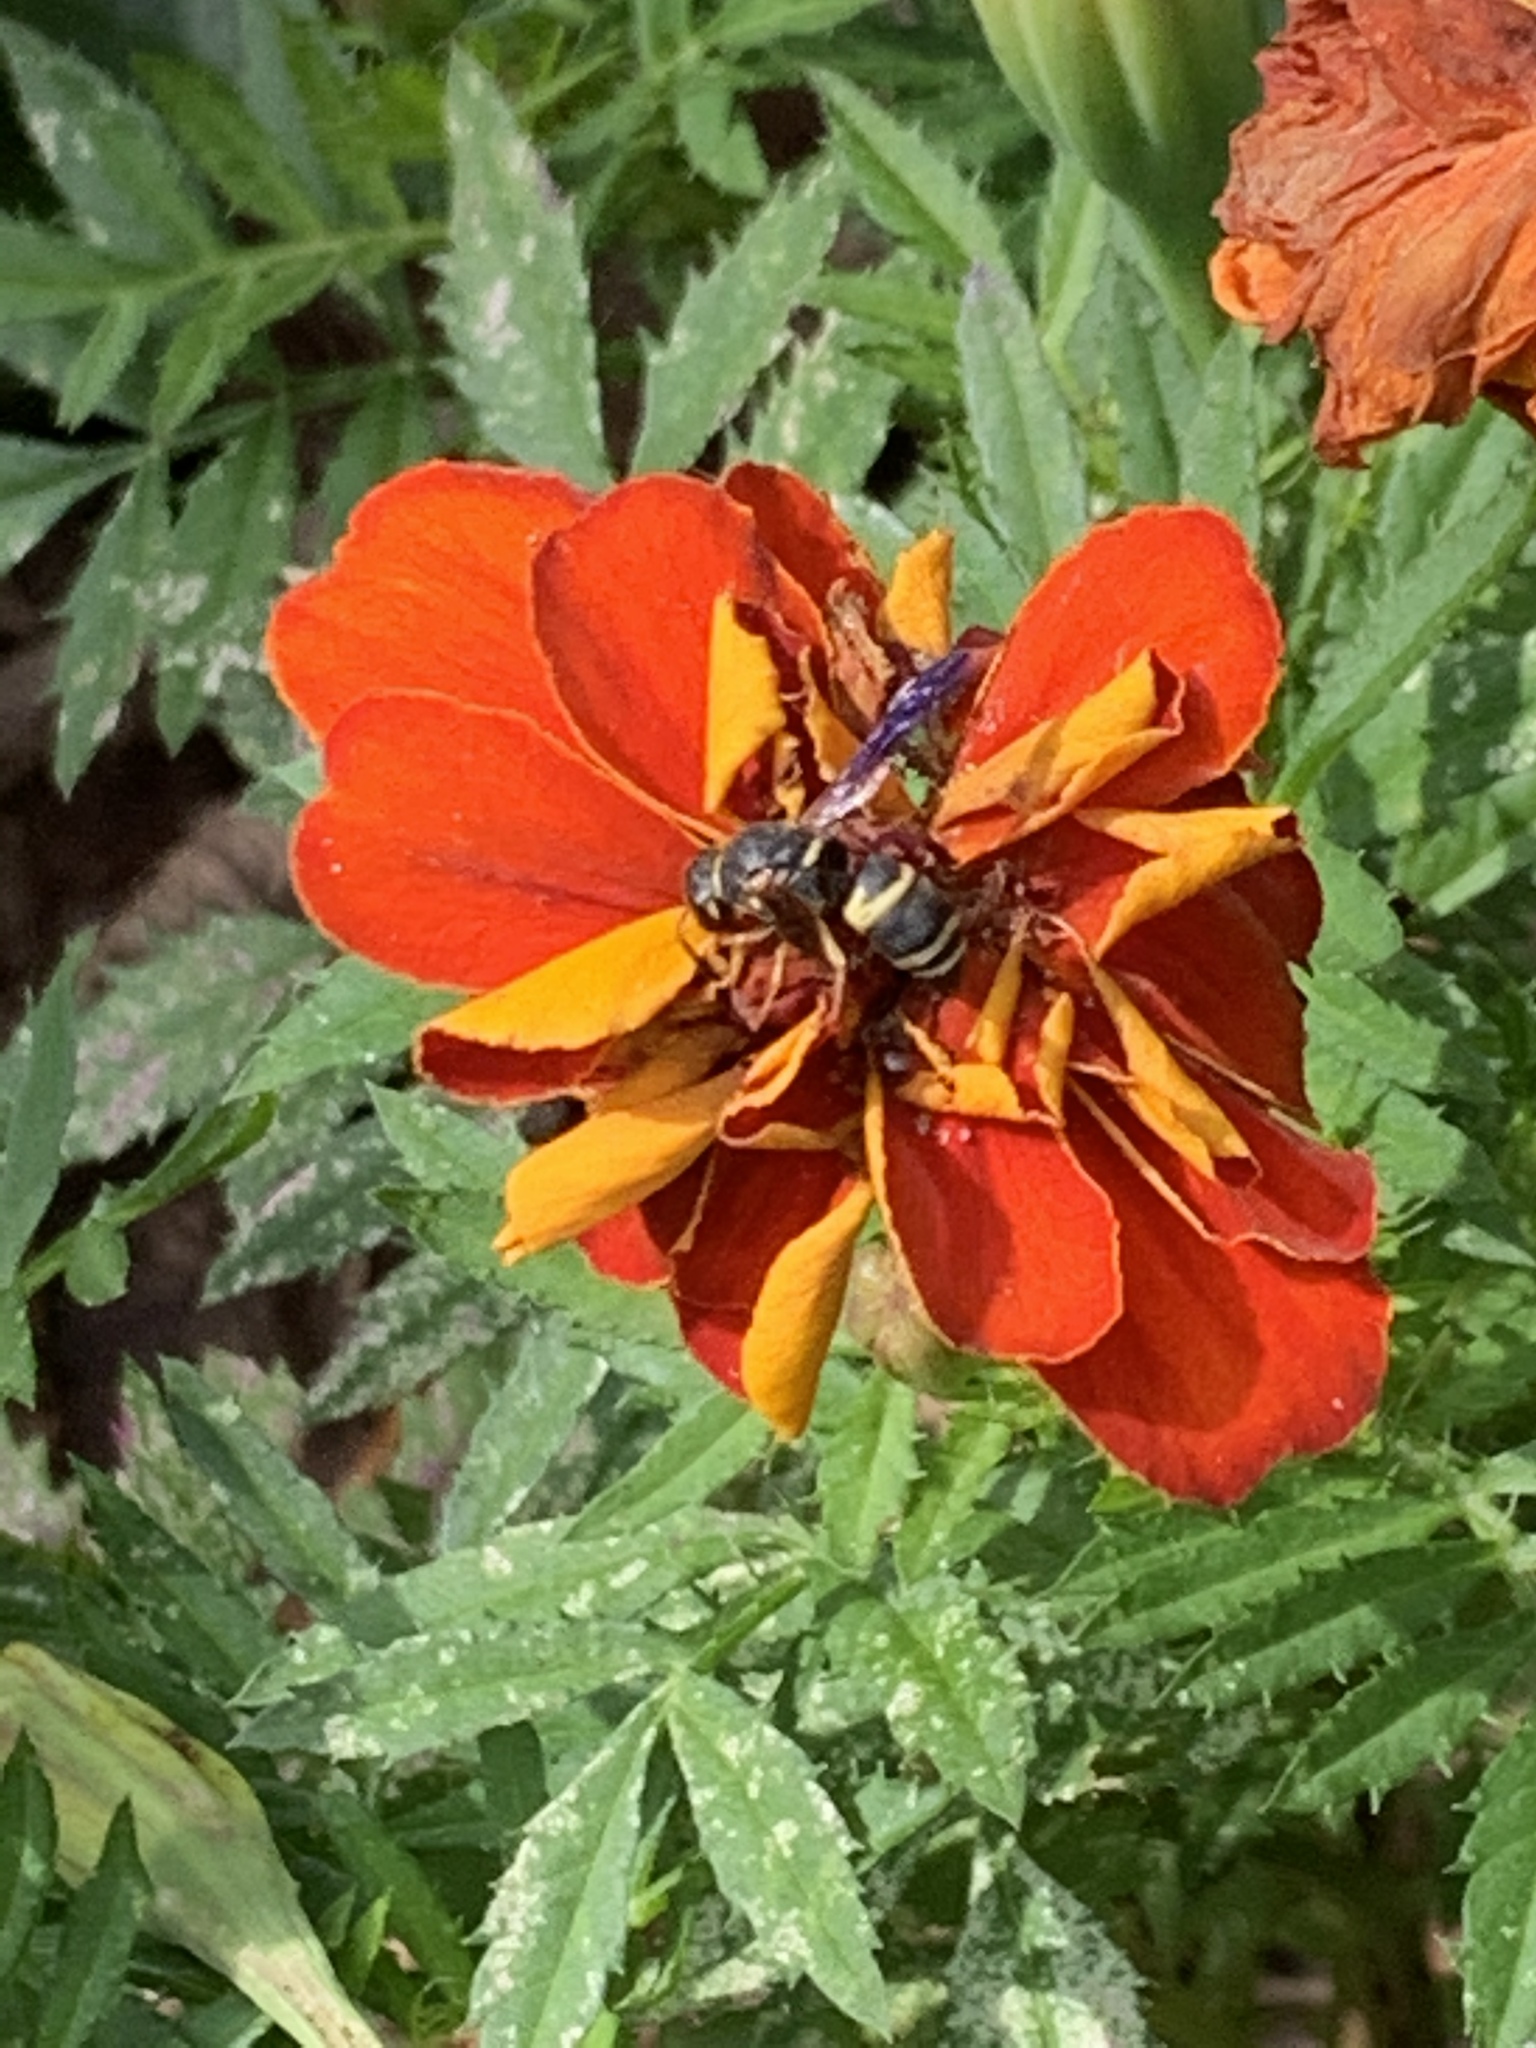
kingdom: Animalia
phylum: Arthropoda
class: Insecta
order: Hymenoptera
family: Eumenidae
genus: Euodynerus
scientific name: Euodynerus hidalgo
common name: Wasp
